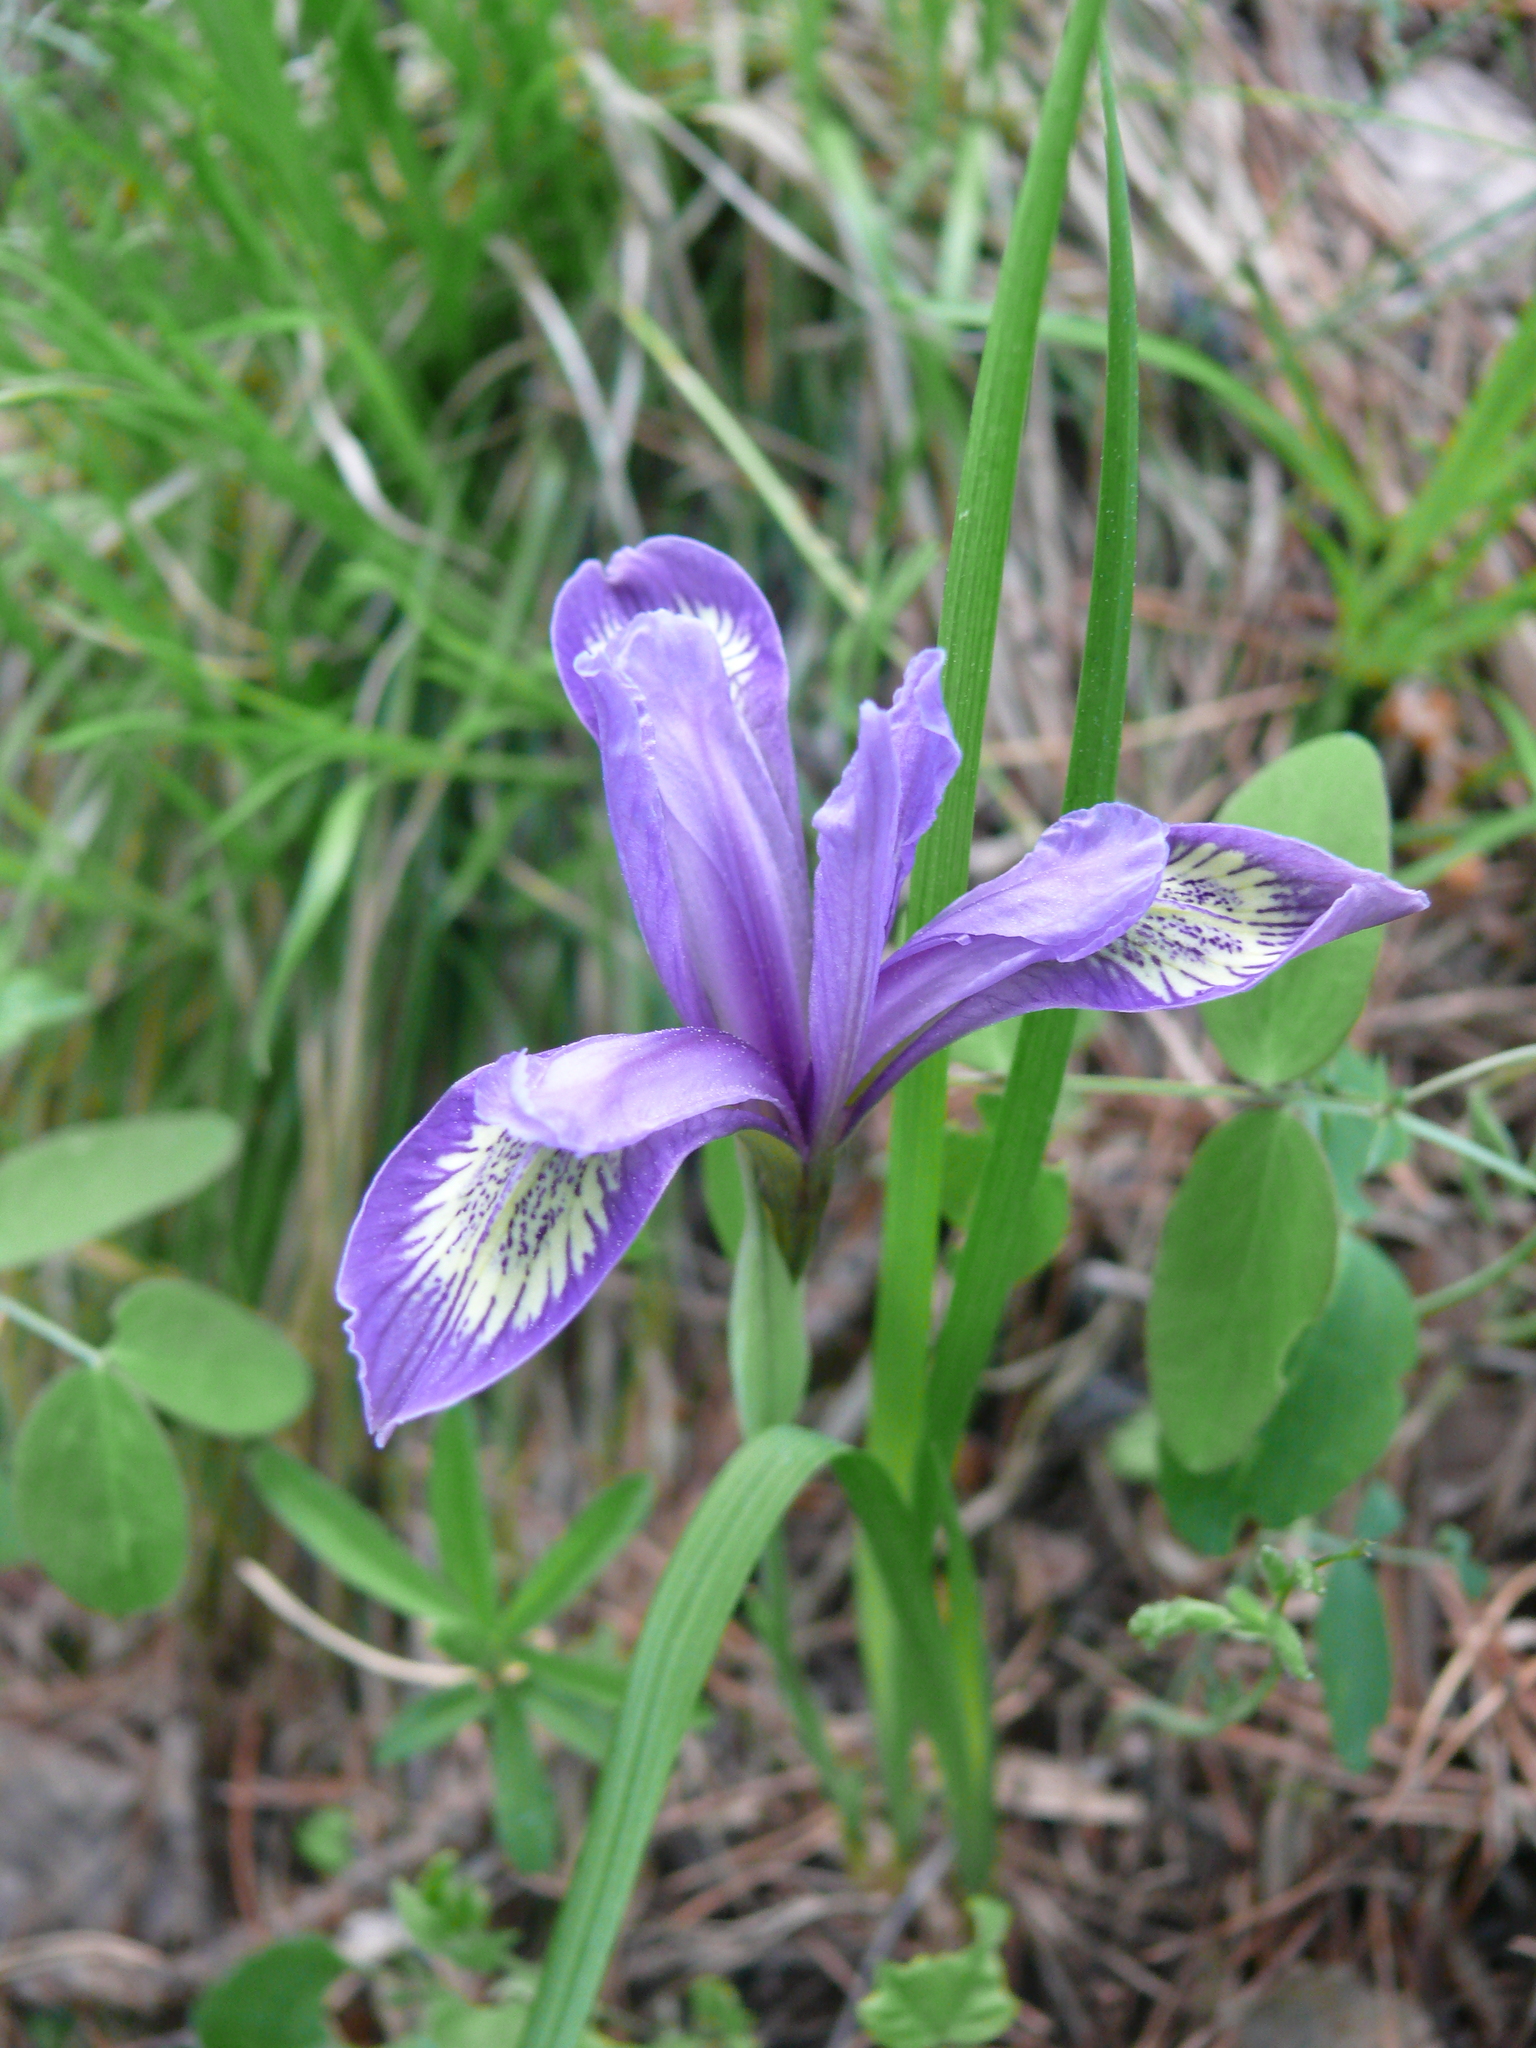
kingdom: Plantae
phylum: Tracheophyta
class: Liliopsida
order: Asparagales
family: Iridaceae
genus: Iris
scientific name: Iris ruthenica
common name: Purple-bract iris
